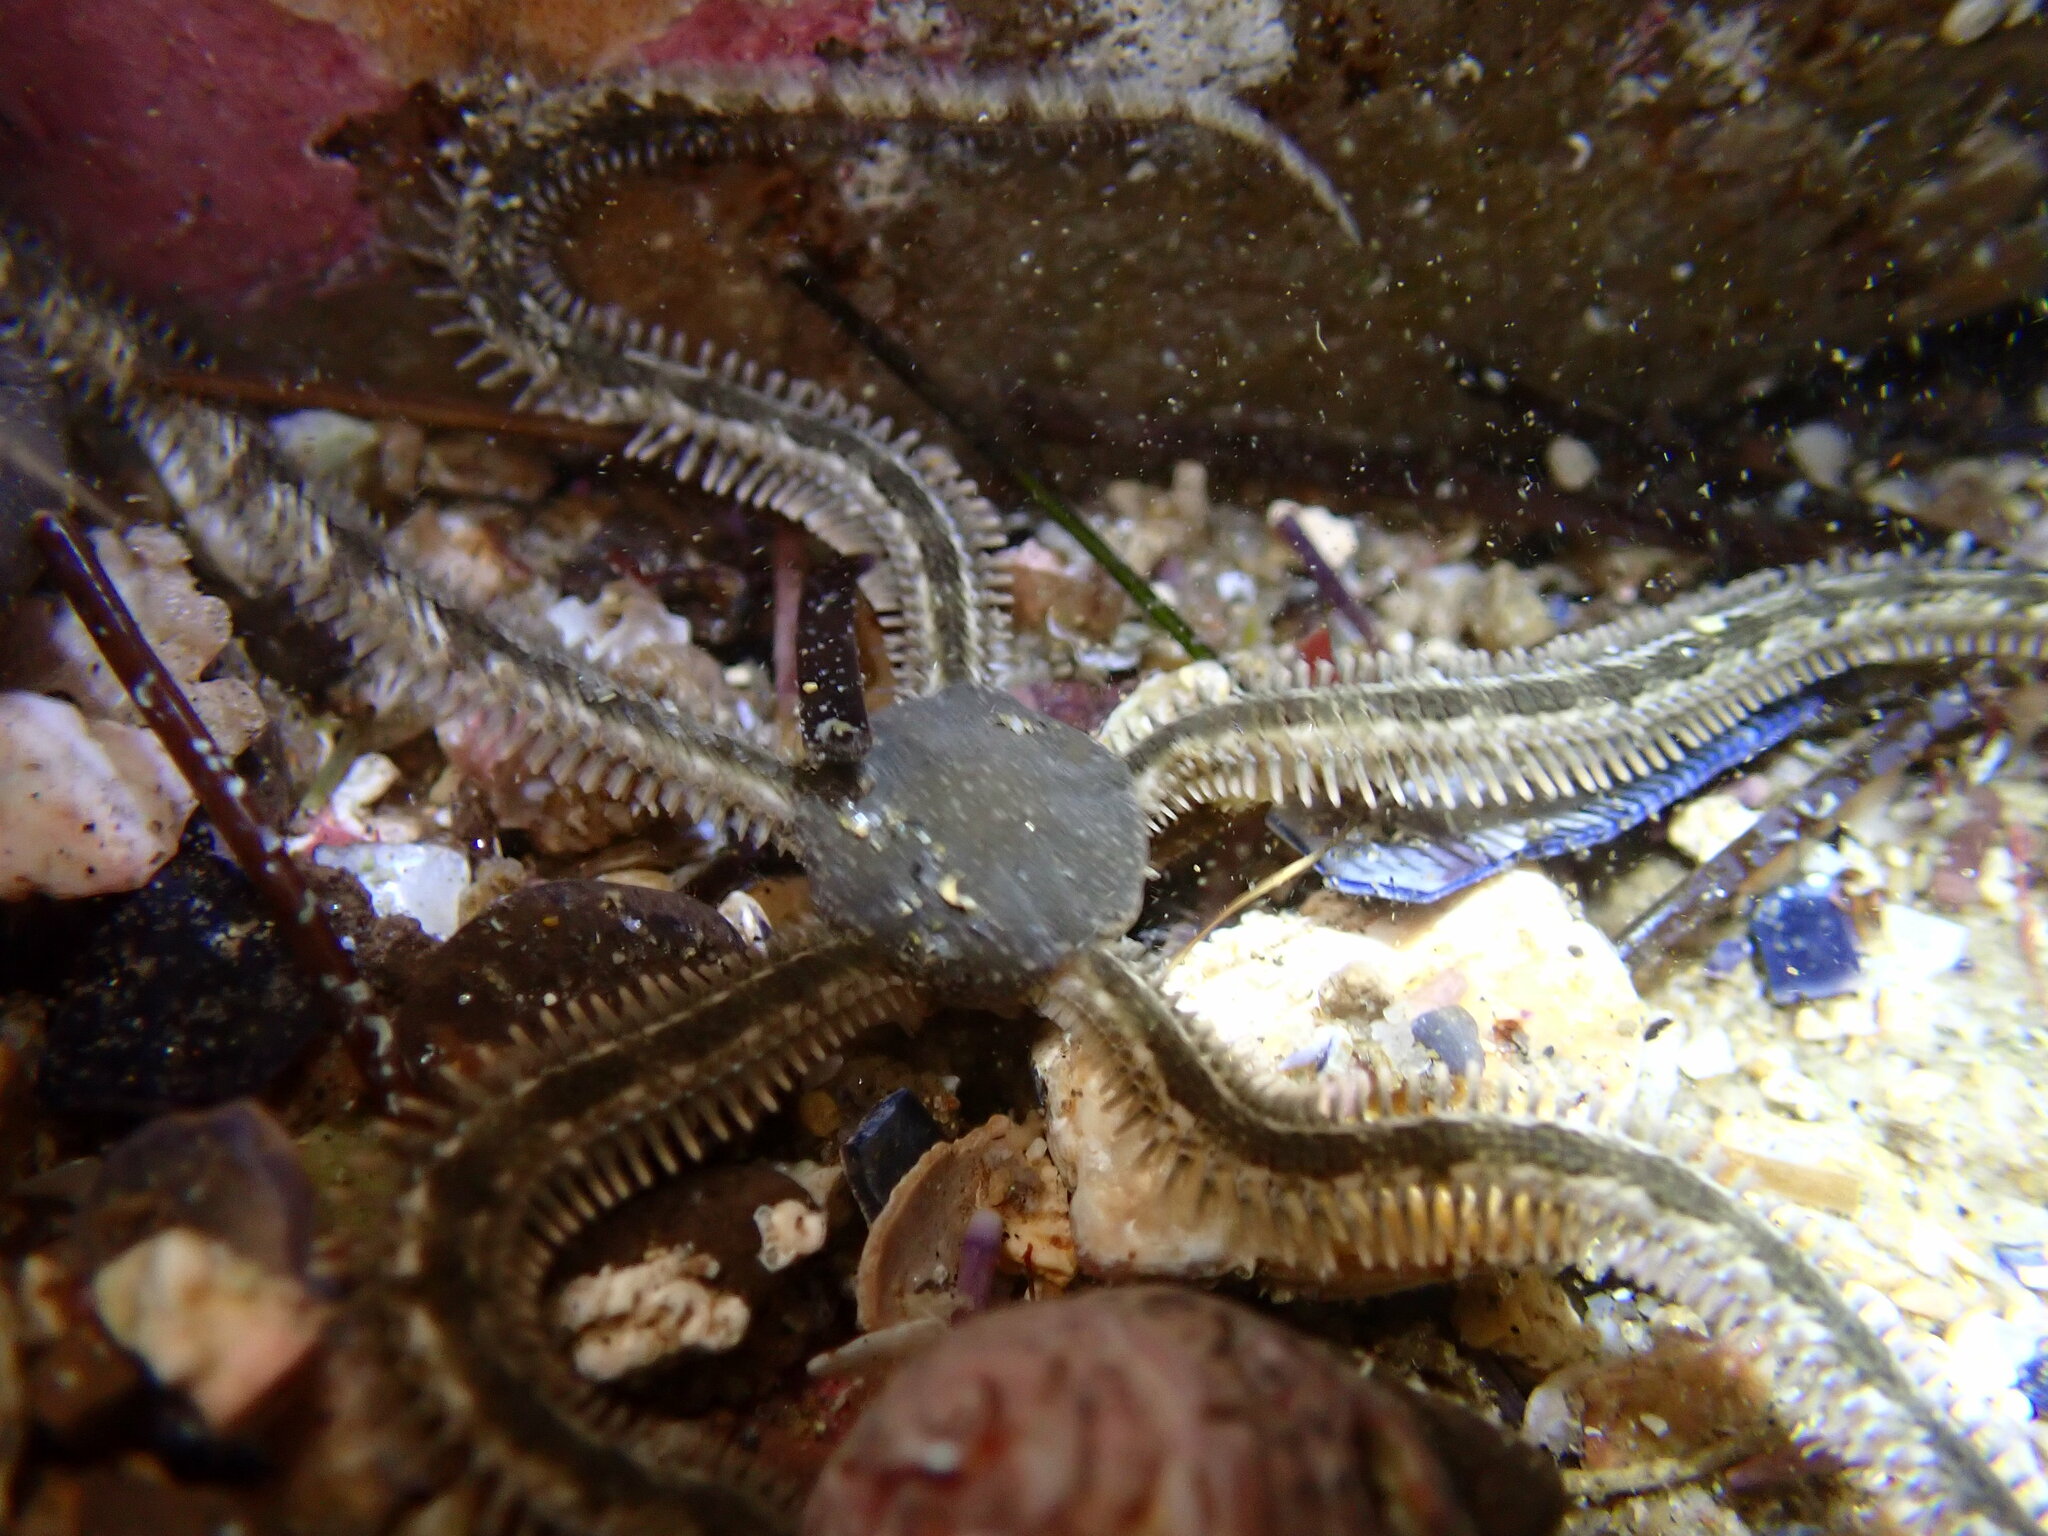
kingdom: Animalia
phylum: Echinodermata
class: Ophiuroidea
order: Amphilepidida
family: Ophionereididae
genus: Ophionereis
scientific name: Ophionereis annulata
